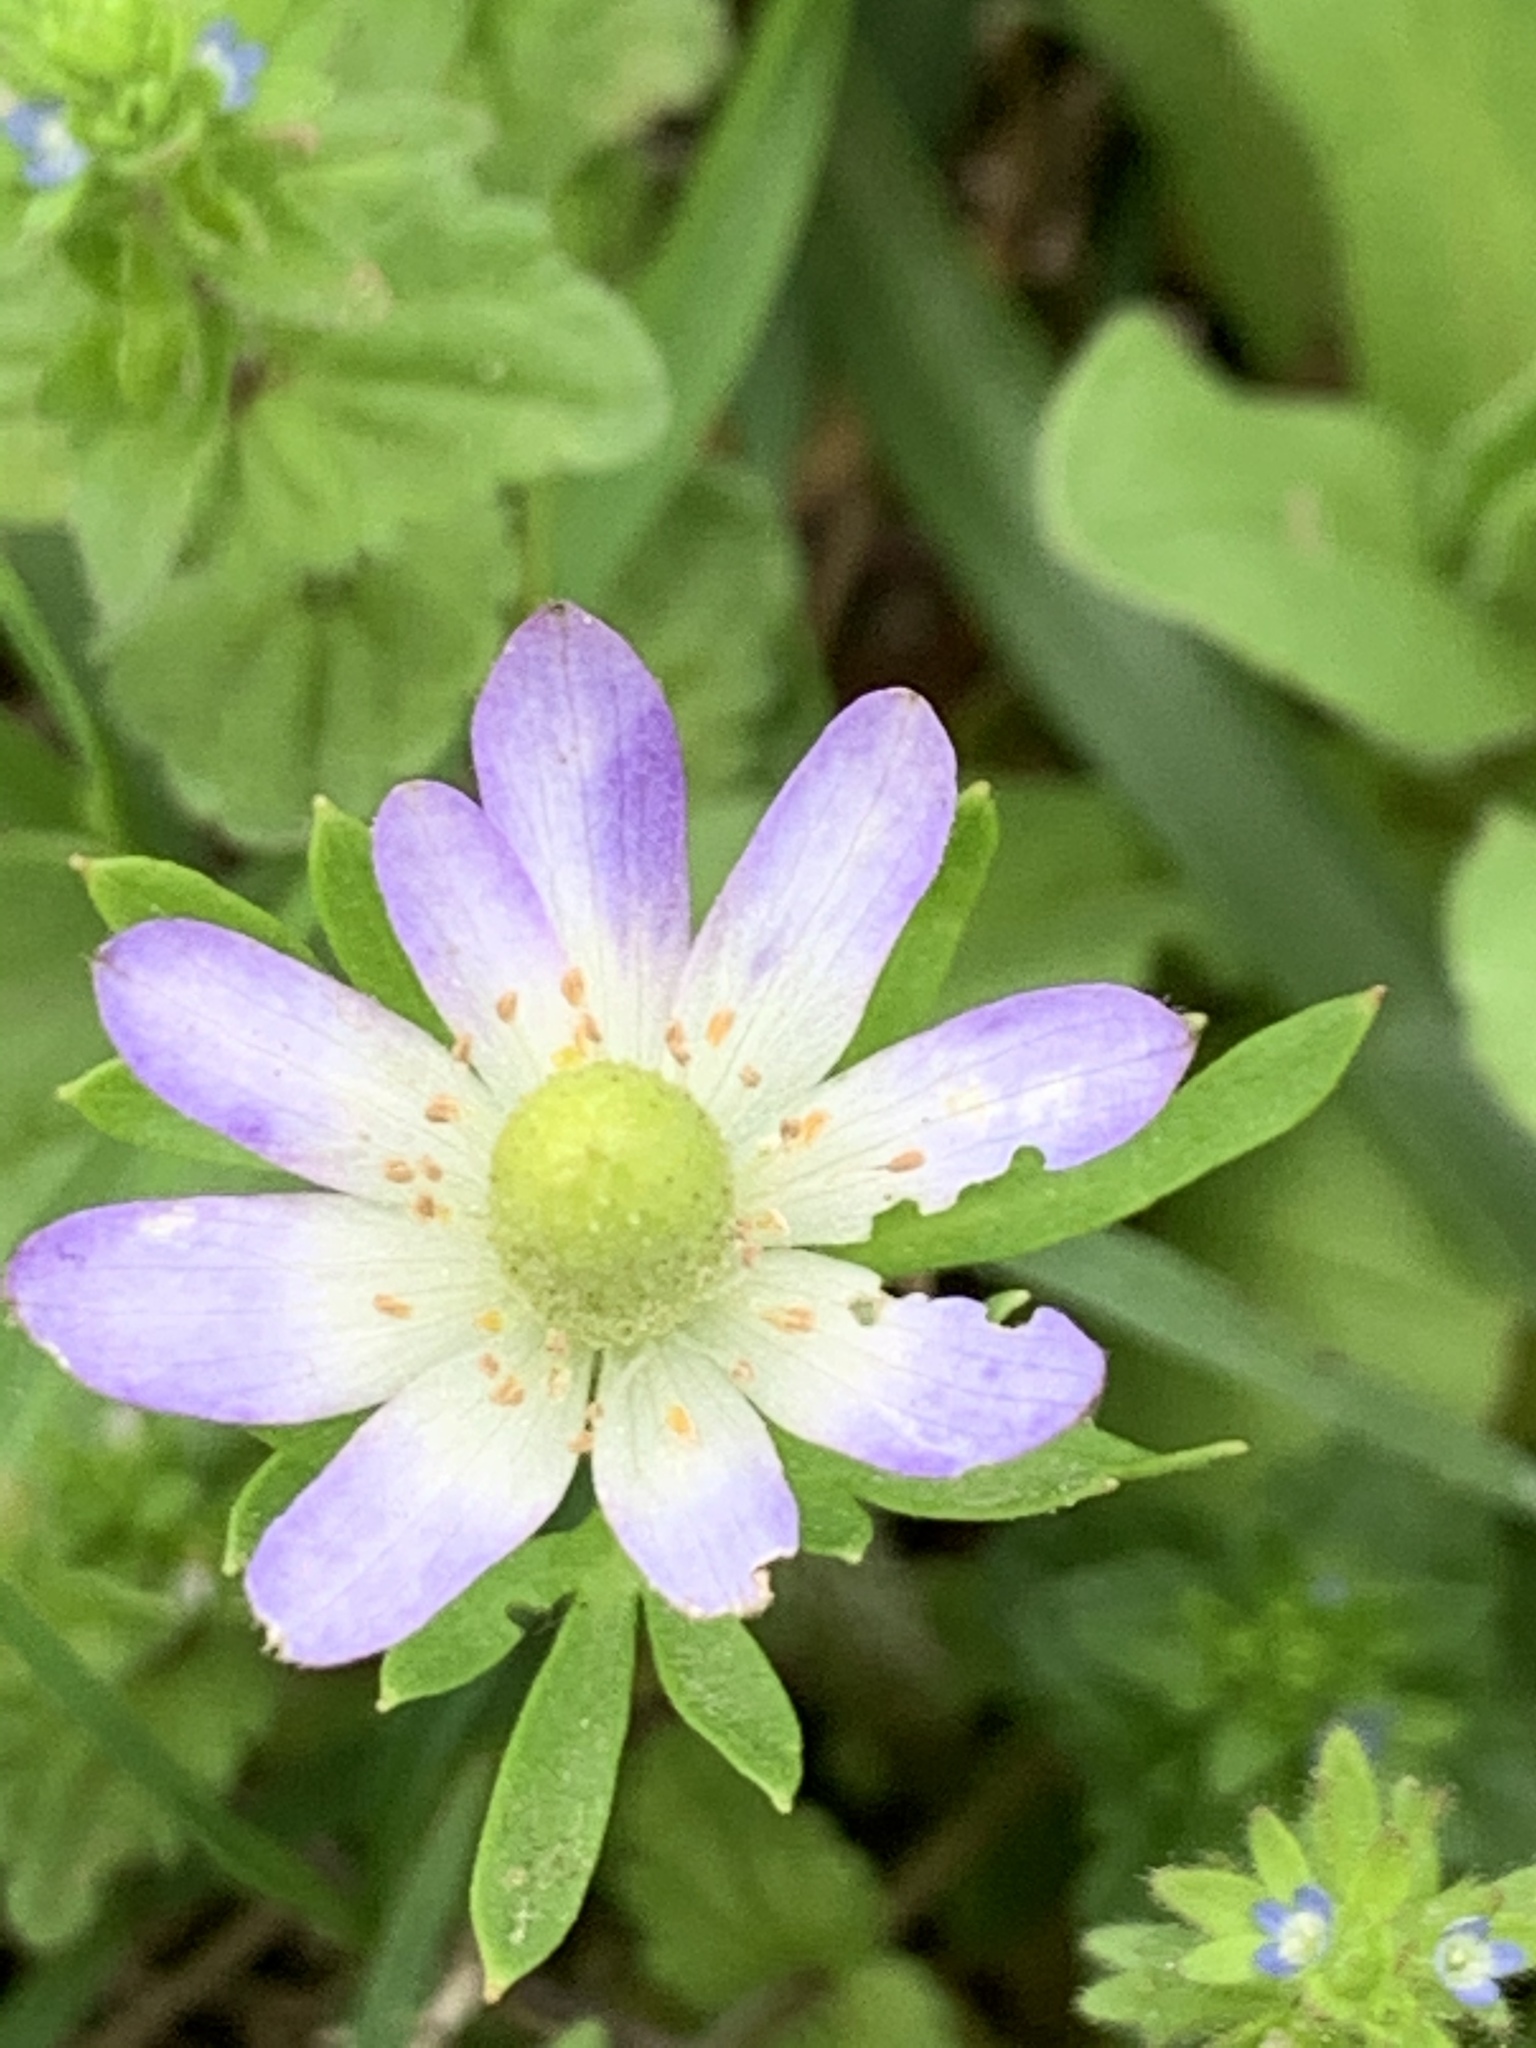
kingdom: Plantae
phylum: Tracheophyta
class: Magnoliopsida
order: Ranunculales
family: Ranunculaceae
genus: Anemone
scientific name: Anemone berlandieri
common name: Ten-petal anemone
